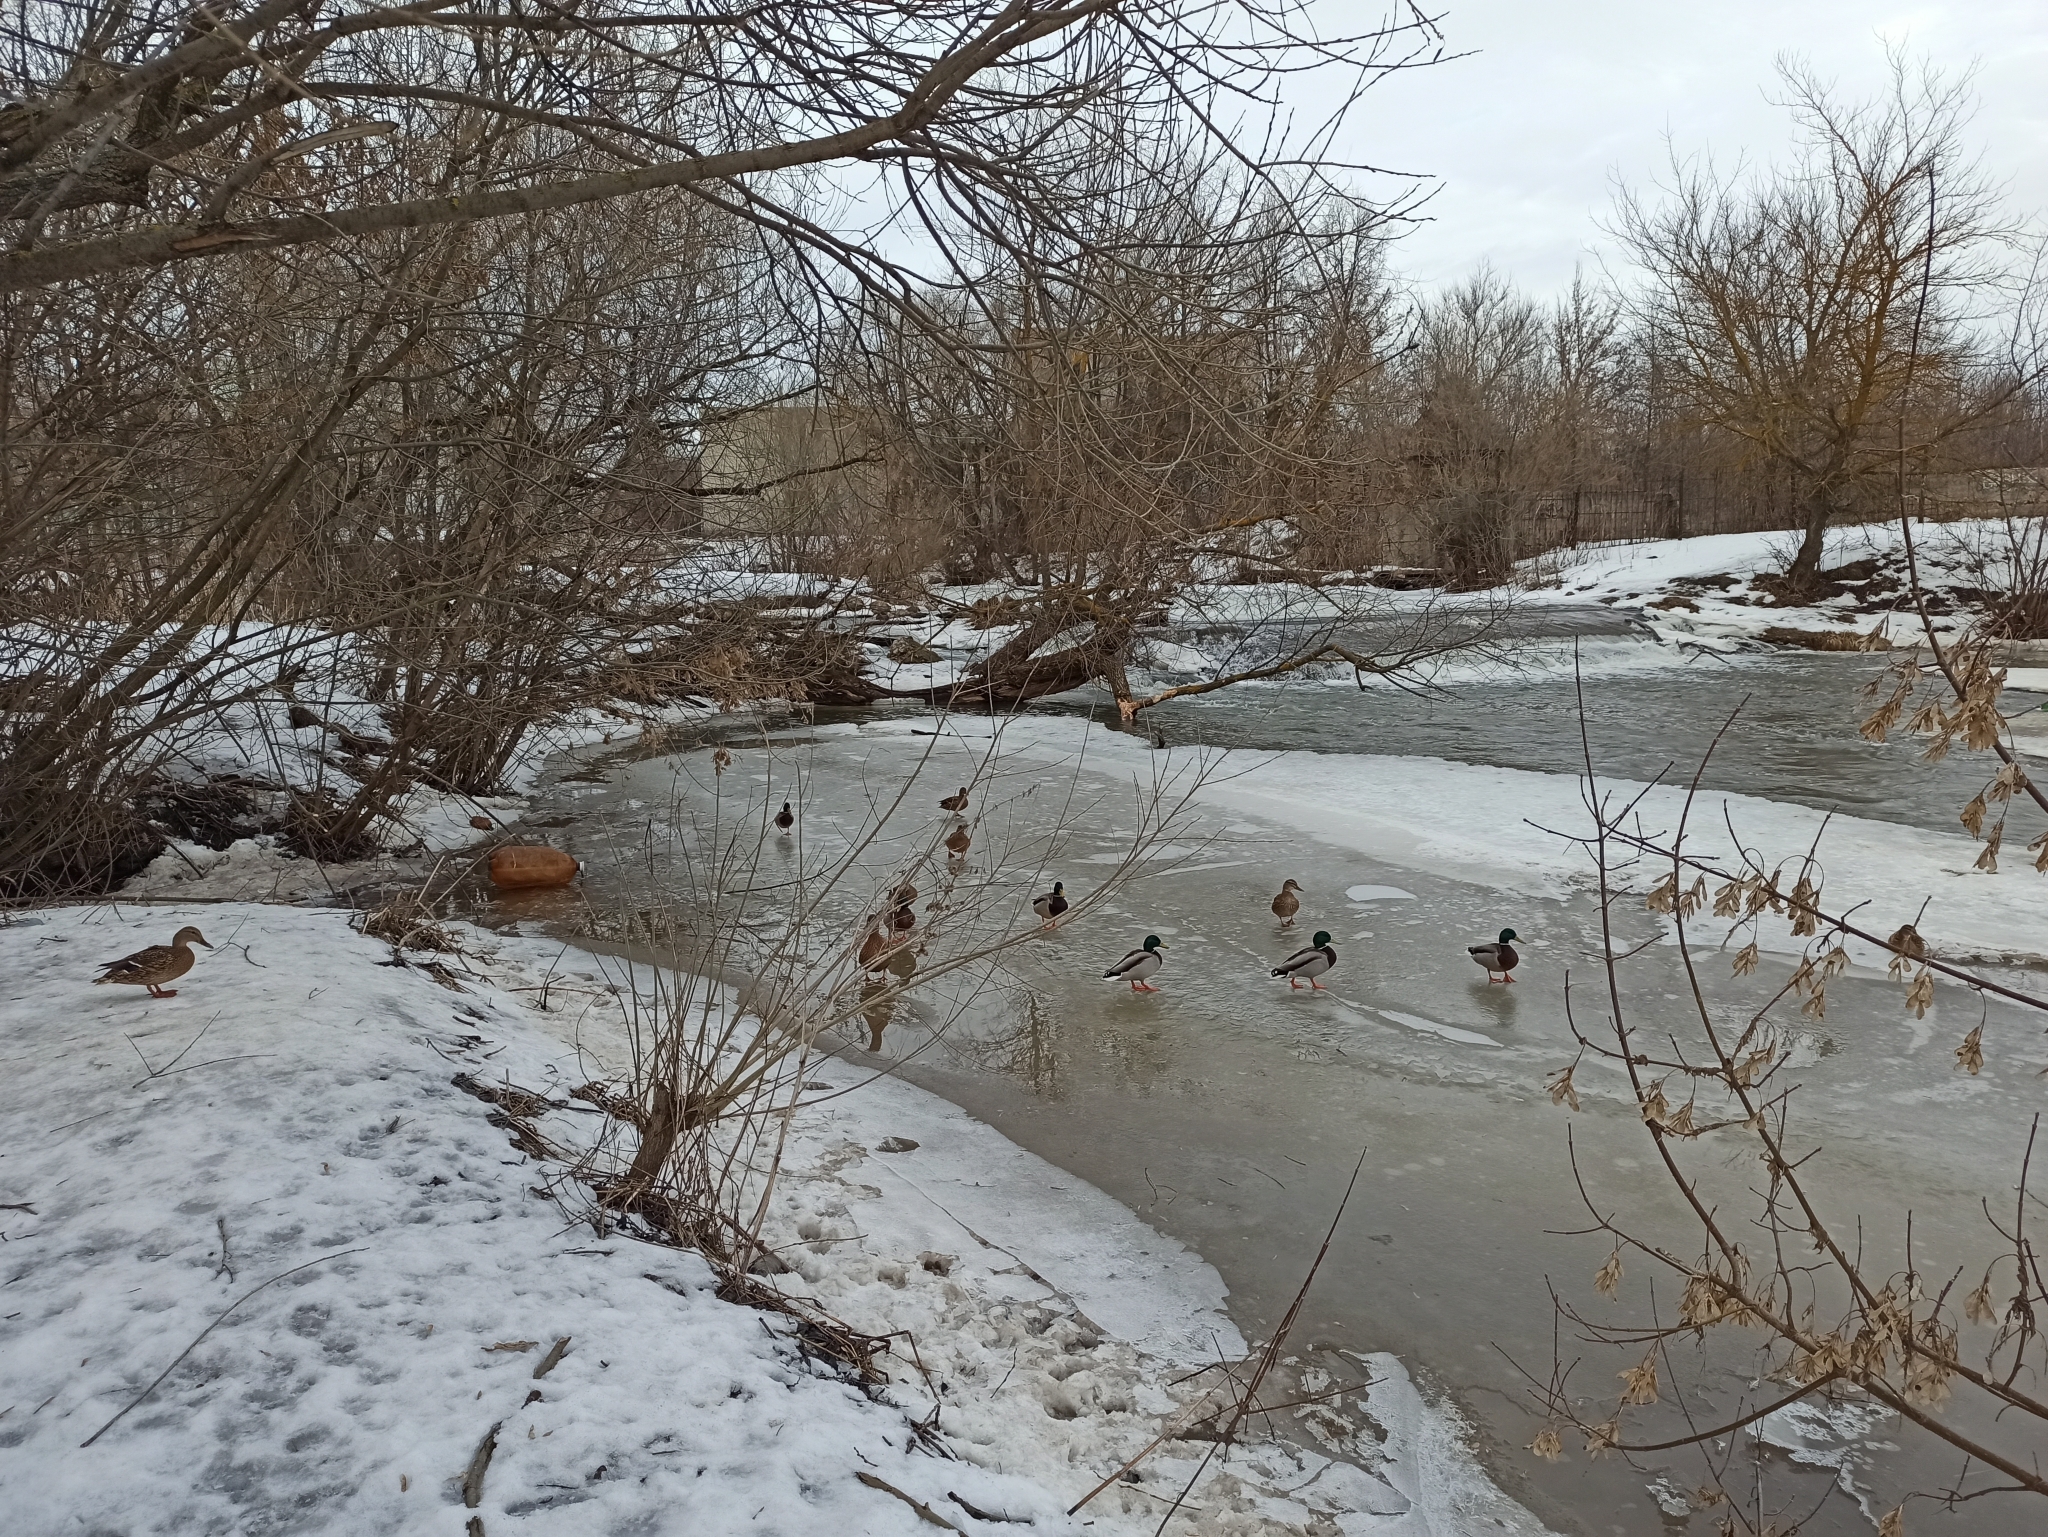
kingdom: Animalia
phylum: Chordata
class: Aves
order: Anseriformes
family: Anatidae
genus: Anas
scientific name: Anas platyrhynchos
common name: Mallard
